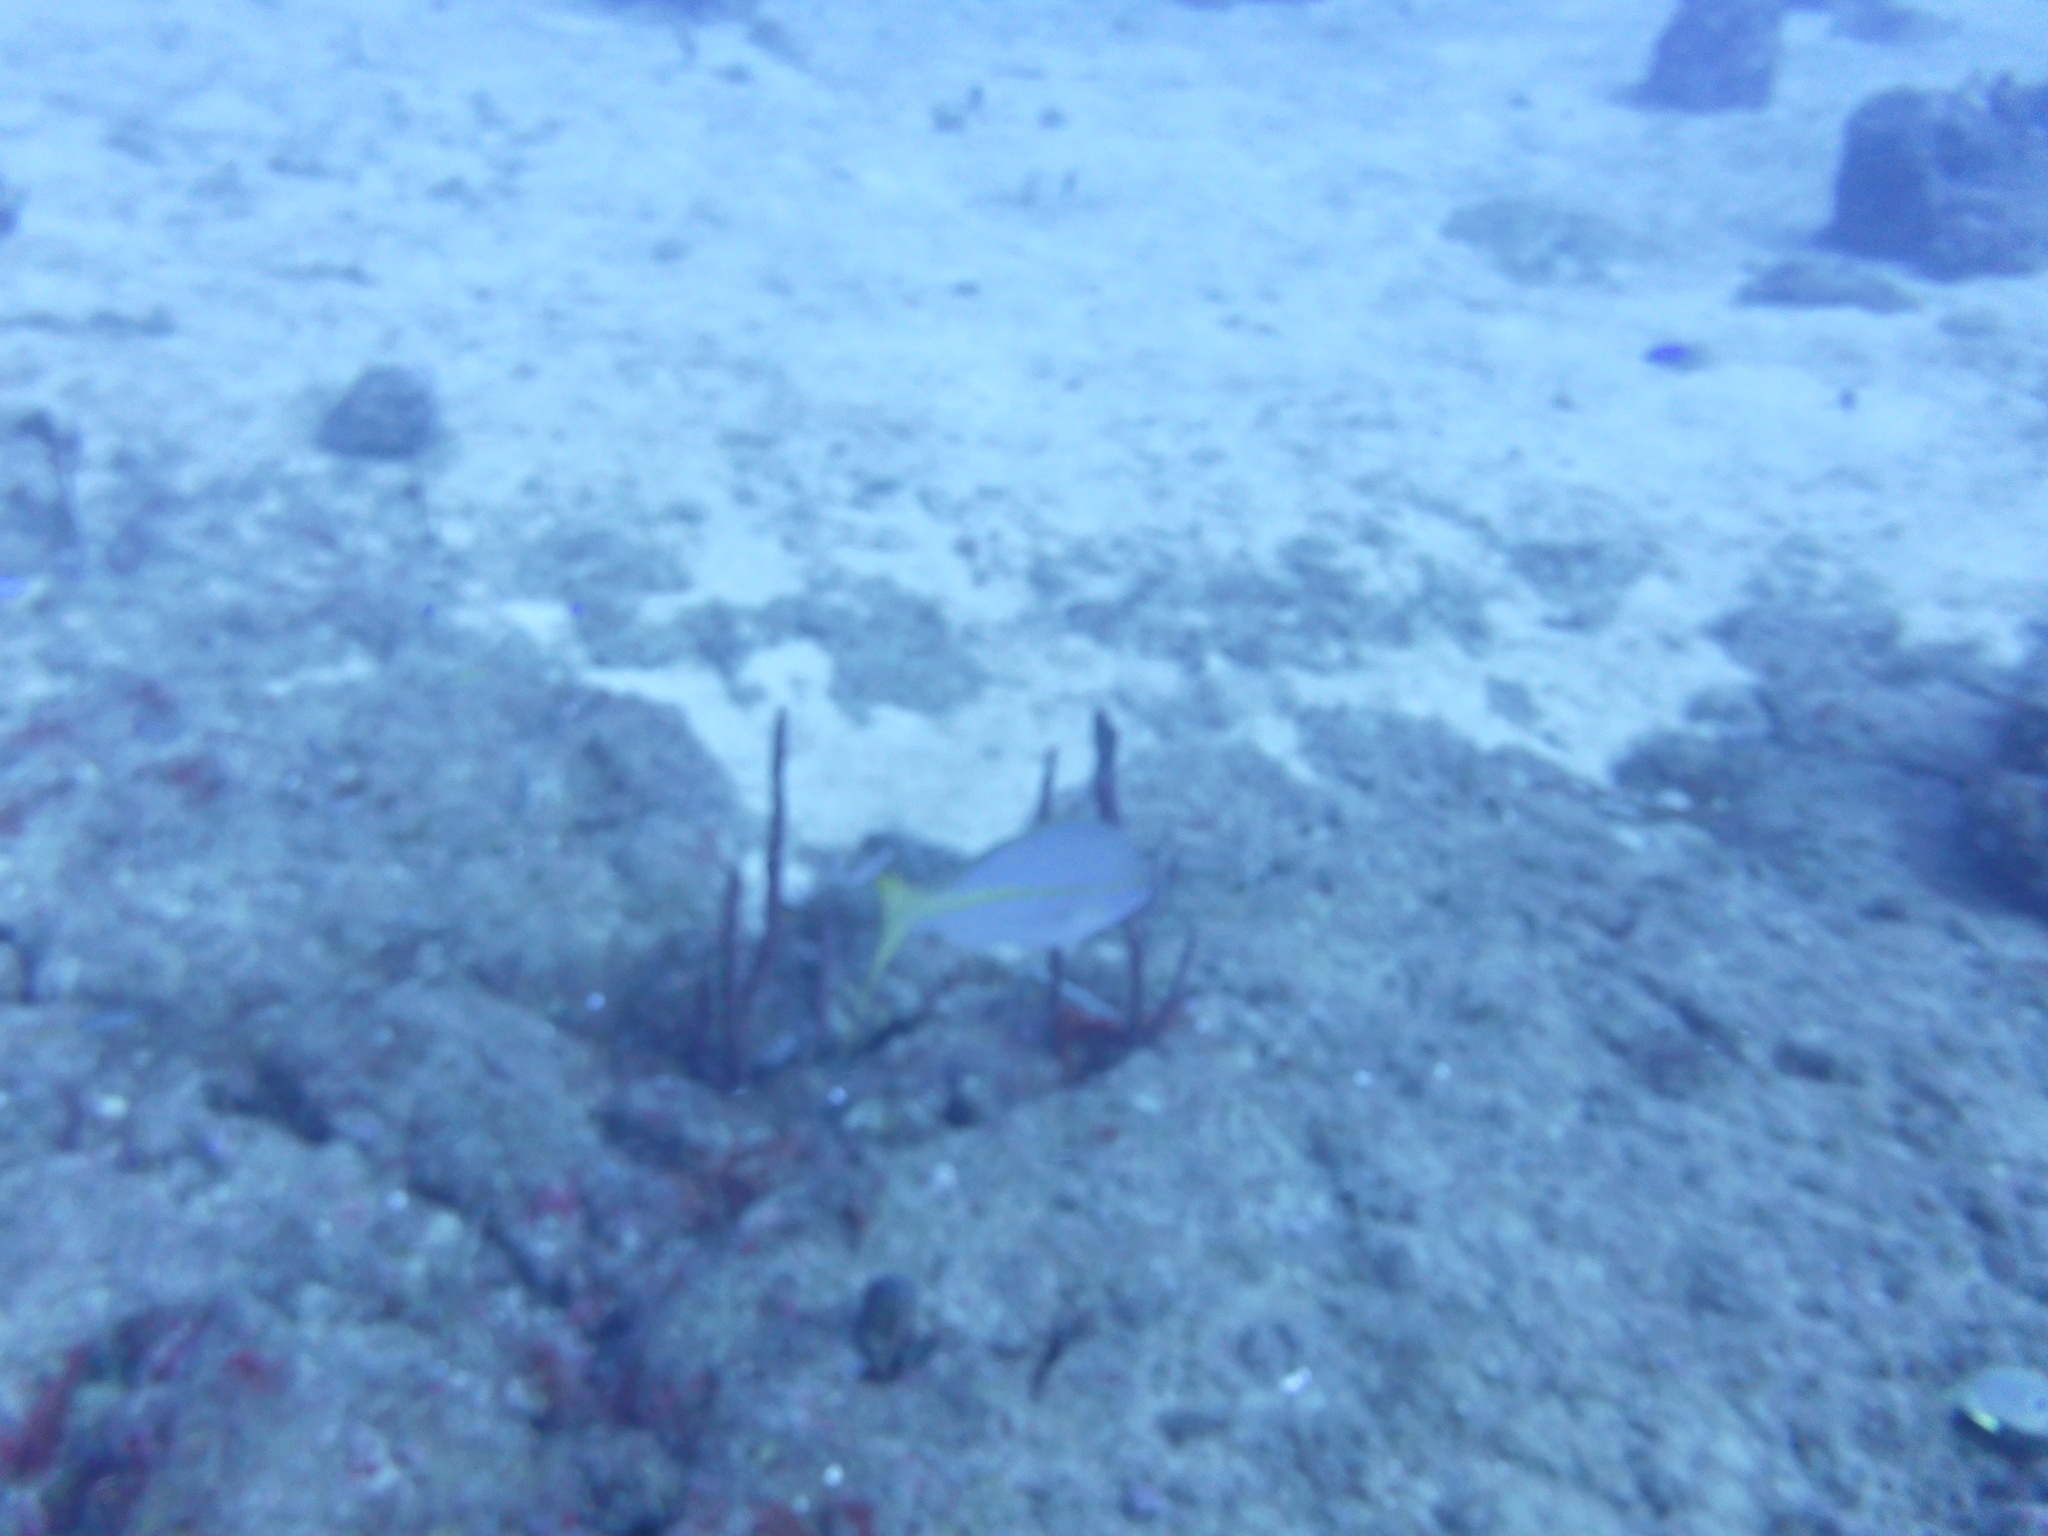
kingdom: Animalia
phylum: Chordata
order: Perciformes
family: Lutjanidae
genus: Ocyurus
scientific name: Ocyurus chrysurus
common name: Yellowtail snapper
